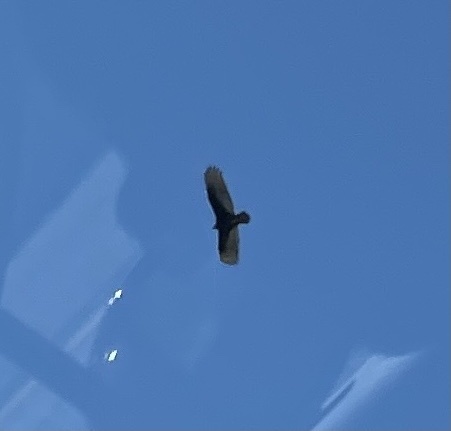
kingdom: Animalia
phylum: Chordata
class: Aves
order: Accipitriformes
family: Cathartidae
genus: Cathartes
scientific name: Cathartes aura
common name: Turkey vulture
